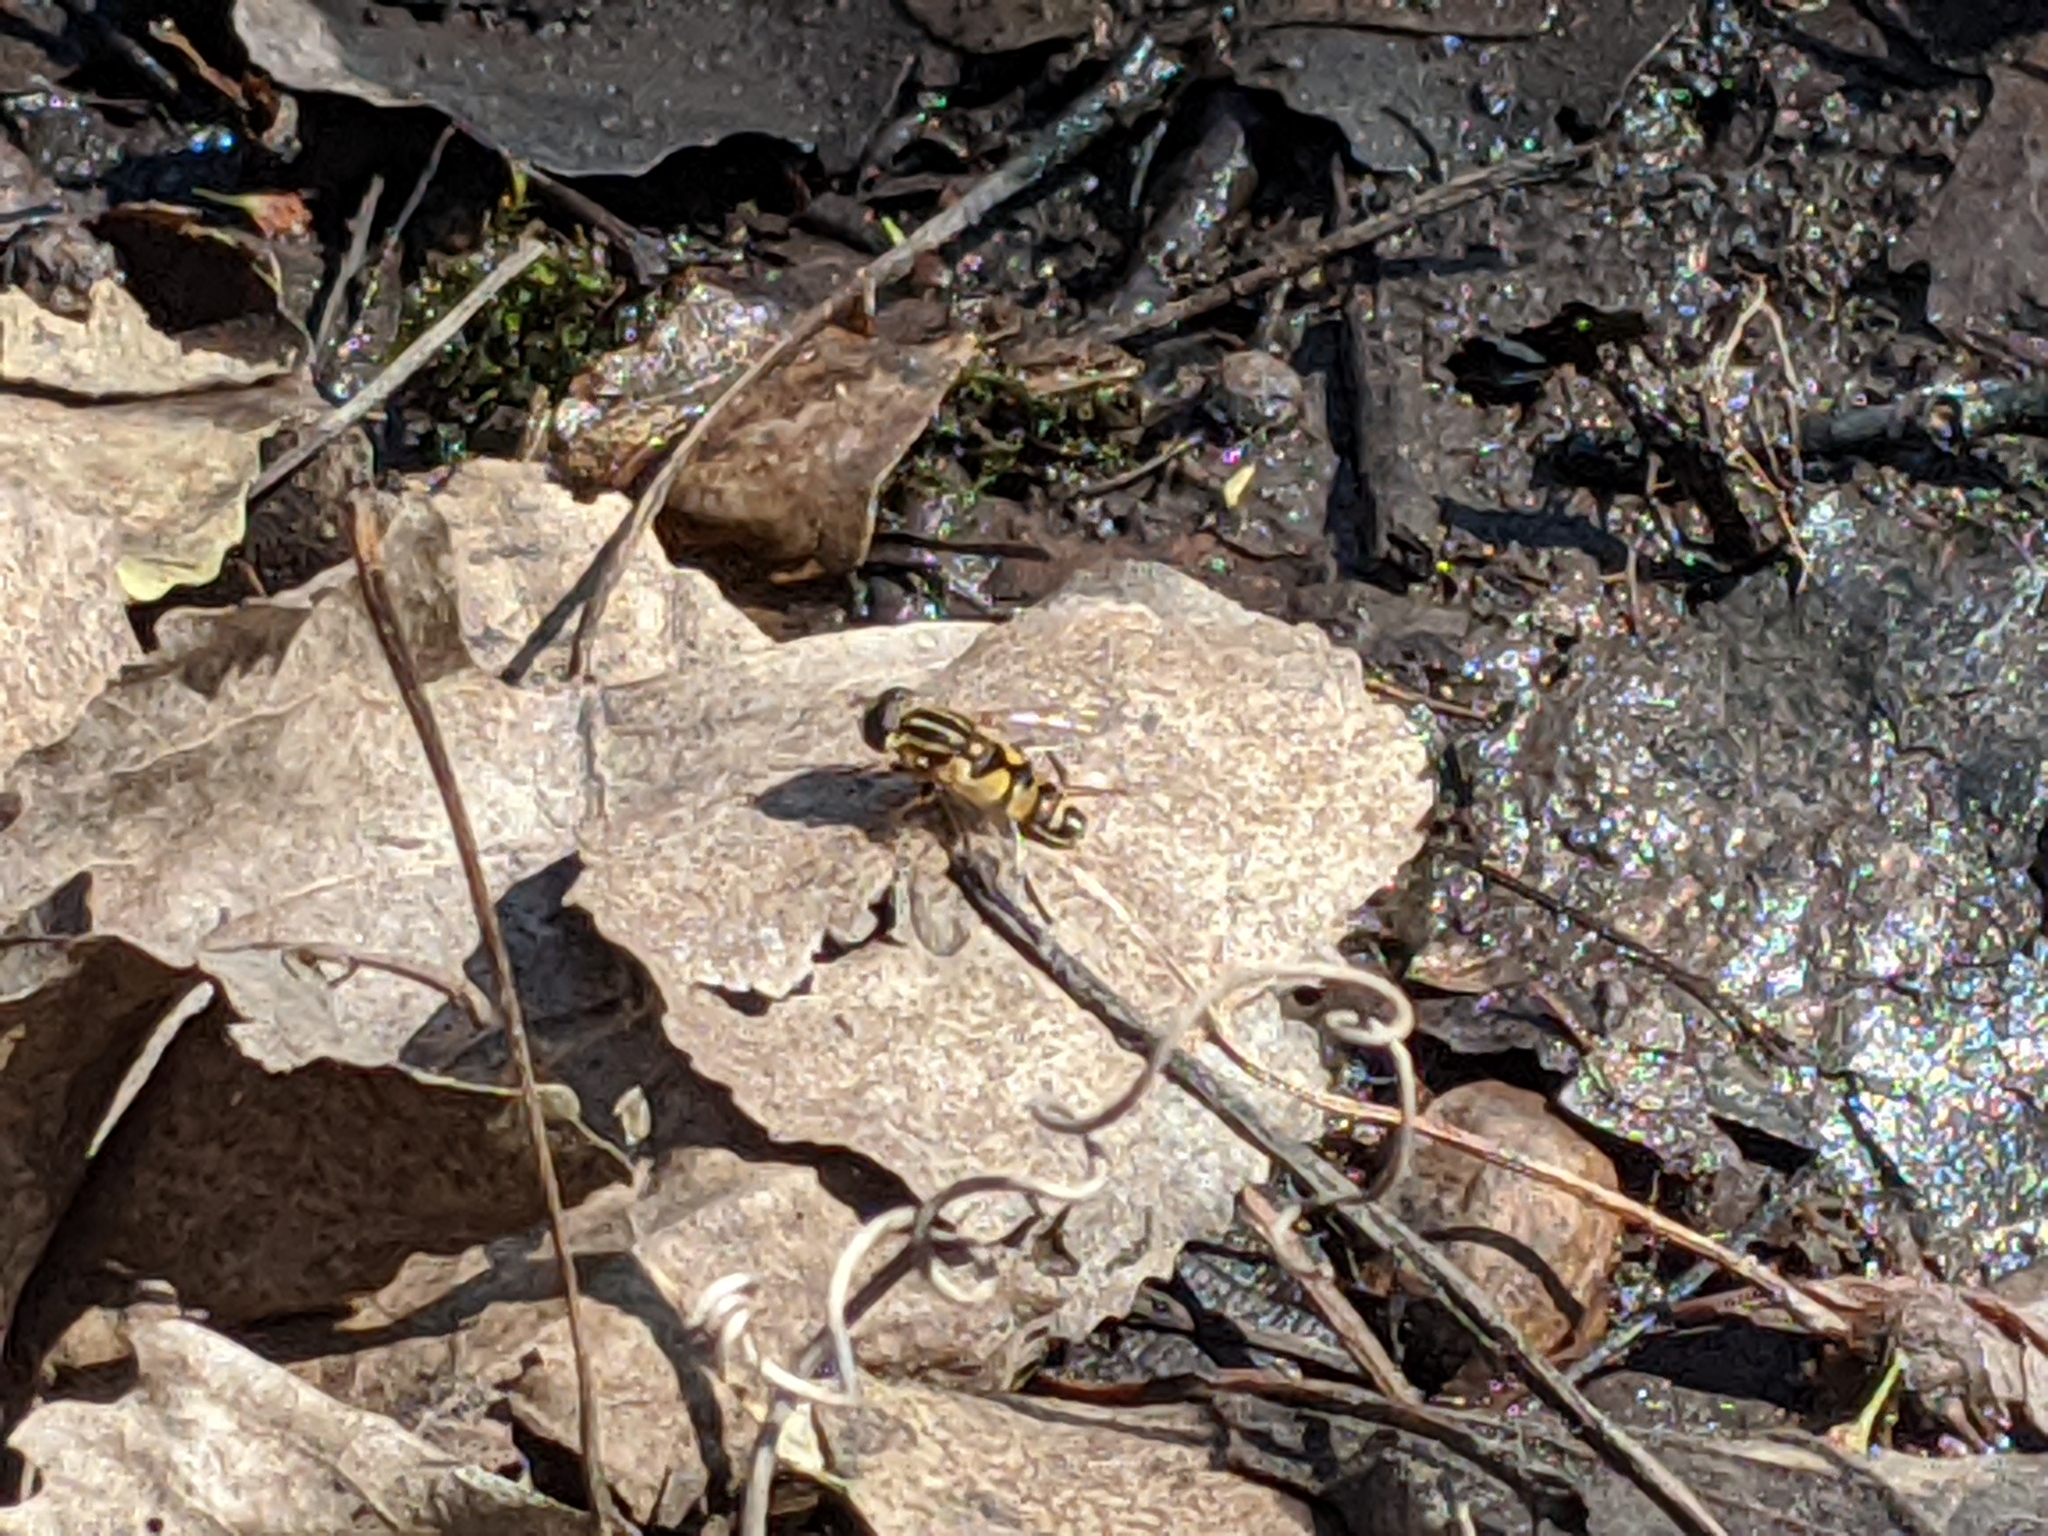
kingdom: Animalia
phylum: Arthropoda
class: Insecta
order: Diptera
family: Syrphidae
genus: Helophilus
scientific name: Helophilus fasciatus
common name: Narrow-headed marsh fly
